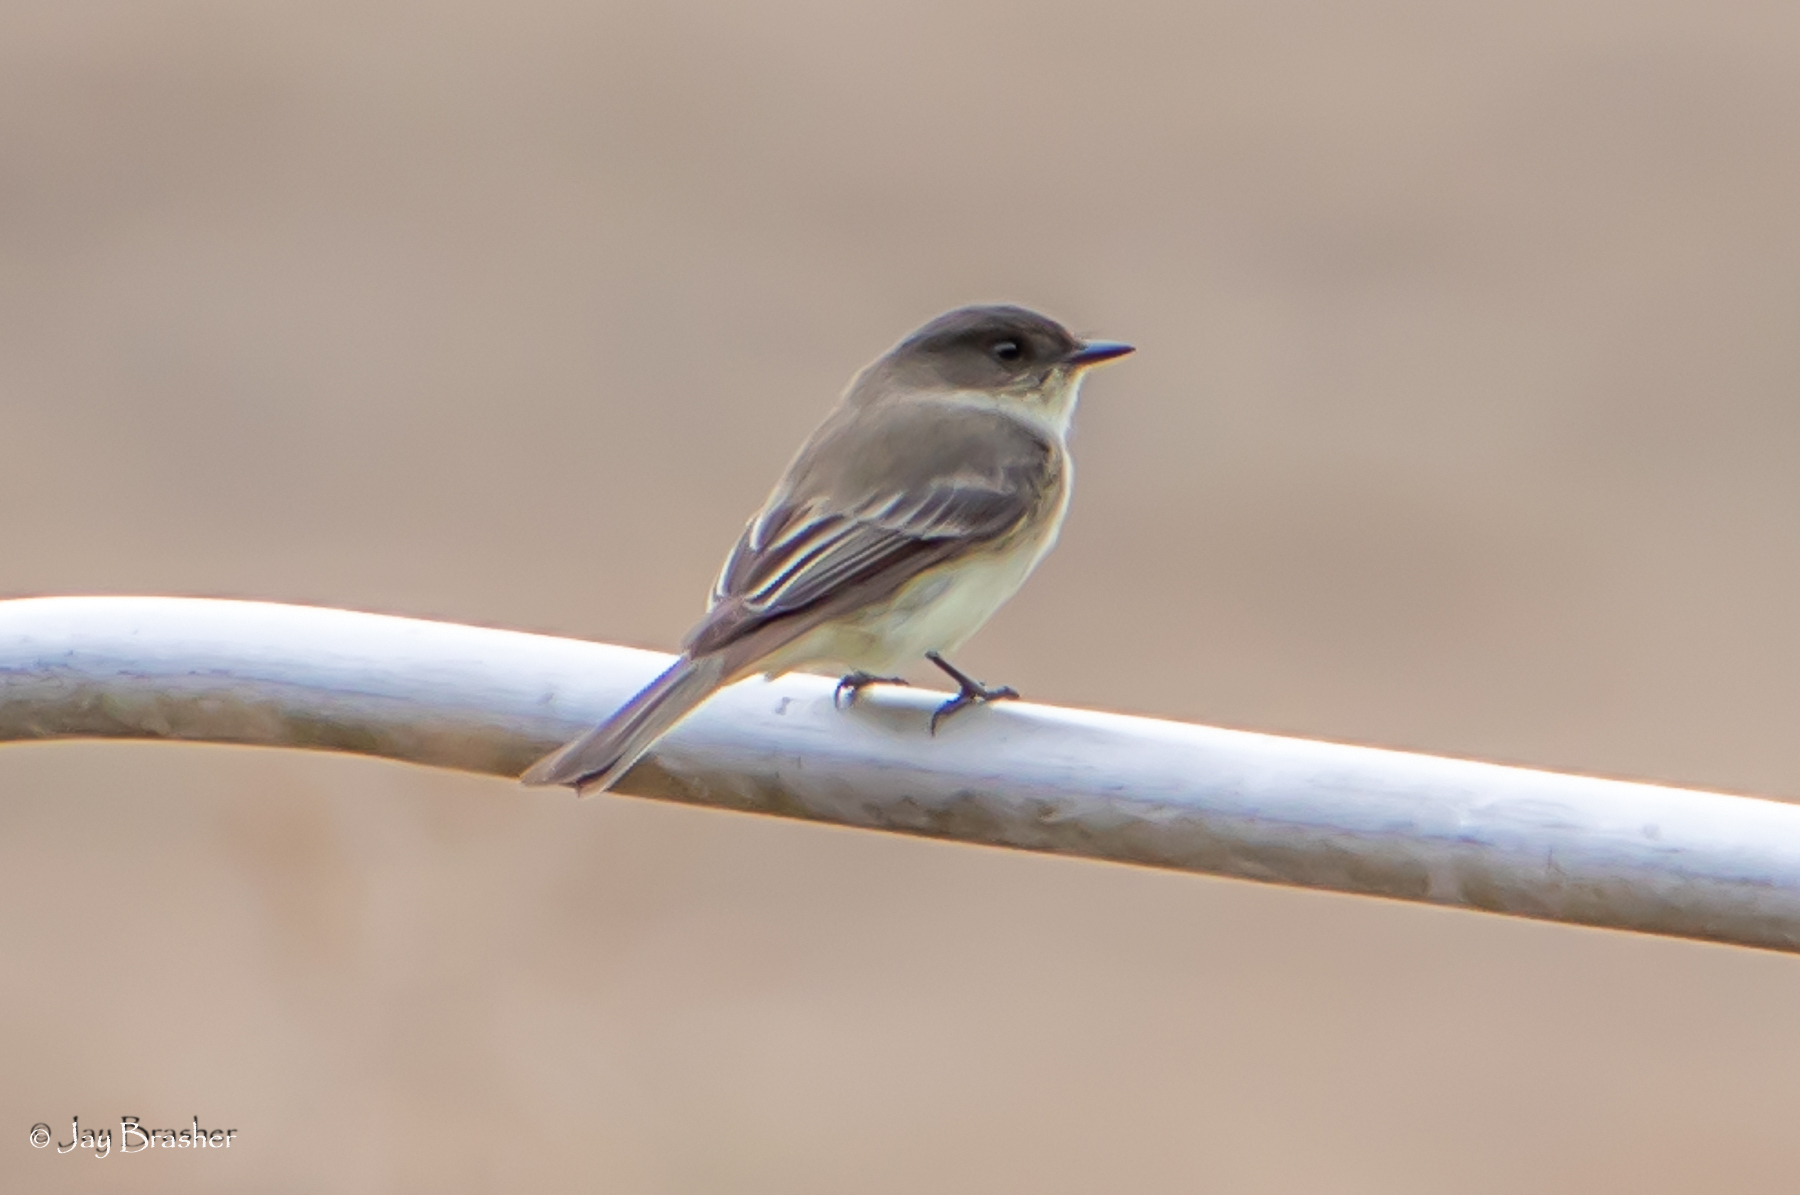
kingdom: Animalia
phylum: Chordata
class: Aves
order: Passeriformes
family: Tyrannidae
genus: Sayornis
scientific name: Sayornis phoebe
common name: Eastern phoebe
